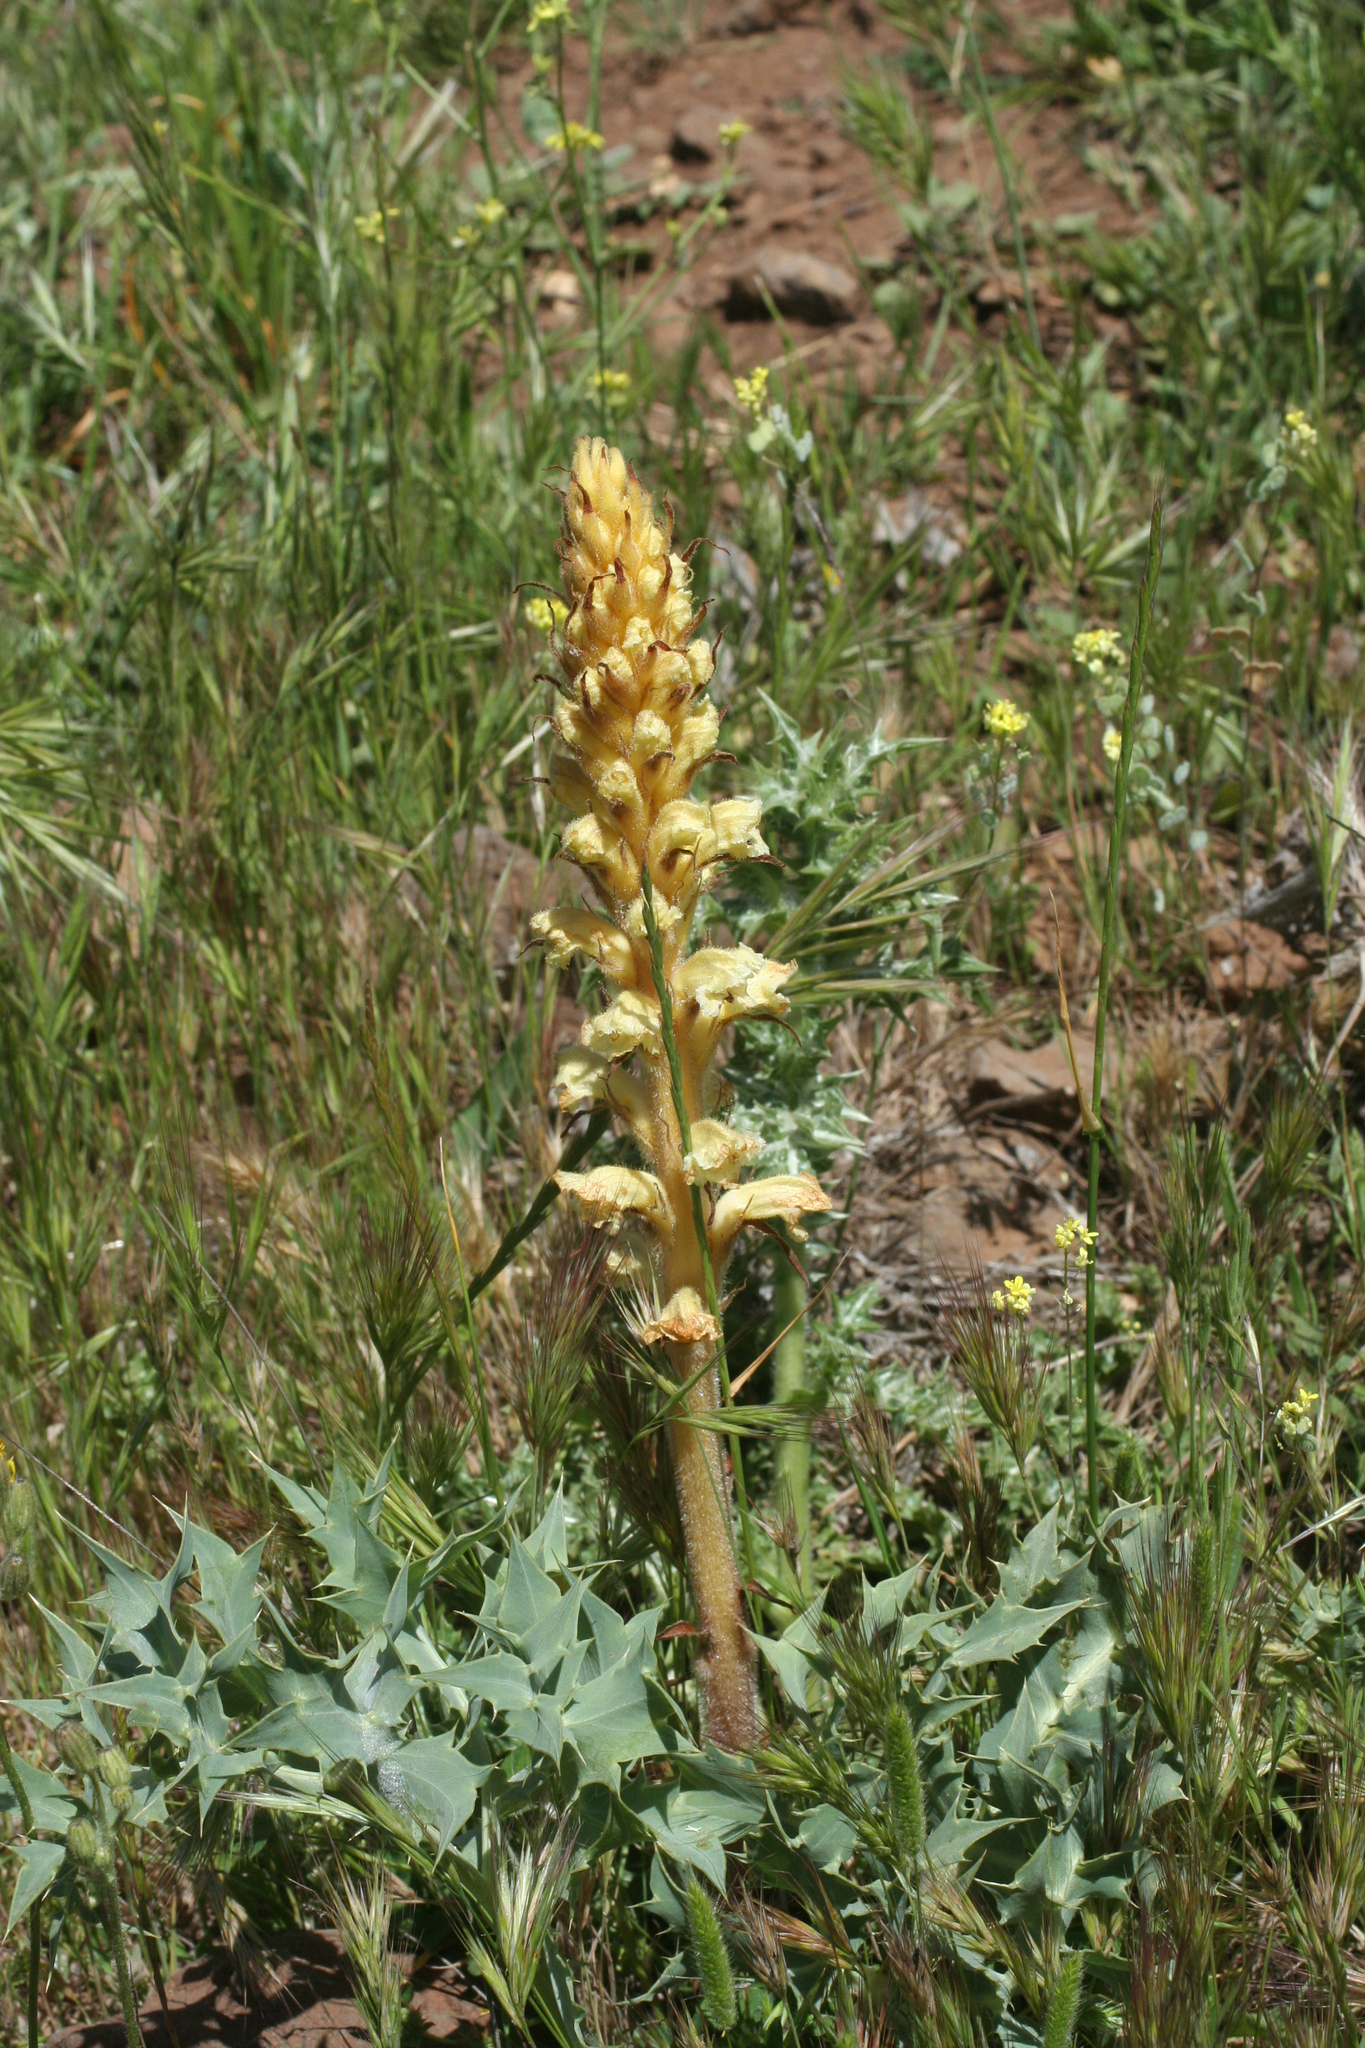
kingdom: Plantae
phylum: Tracheophyta
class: Magnoliopsida
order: Lamiales
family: Orobanchaceae
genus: Orobanche
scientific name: Orobanche amethystea
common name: Amethyst broomrape
